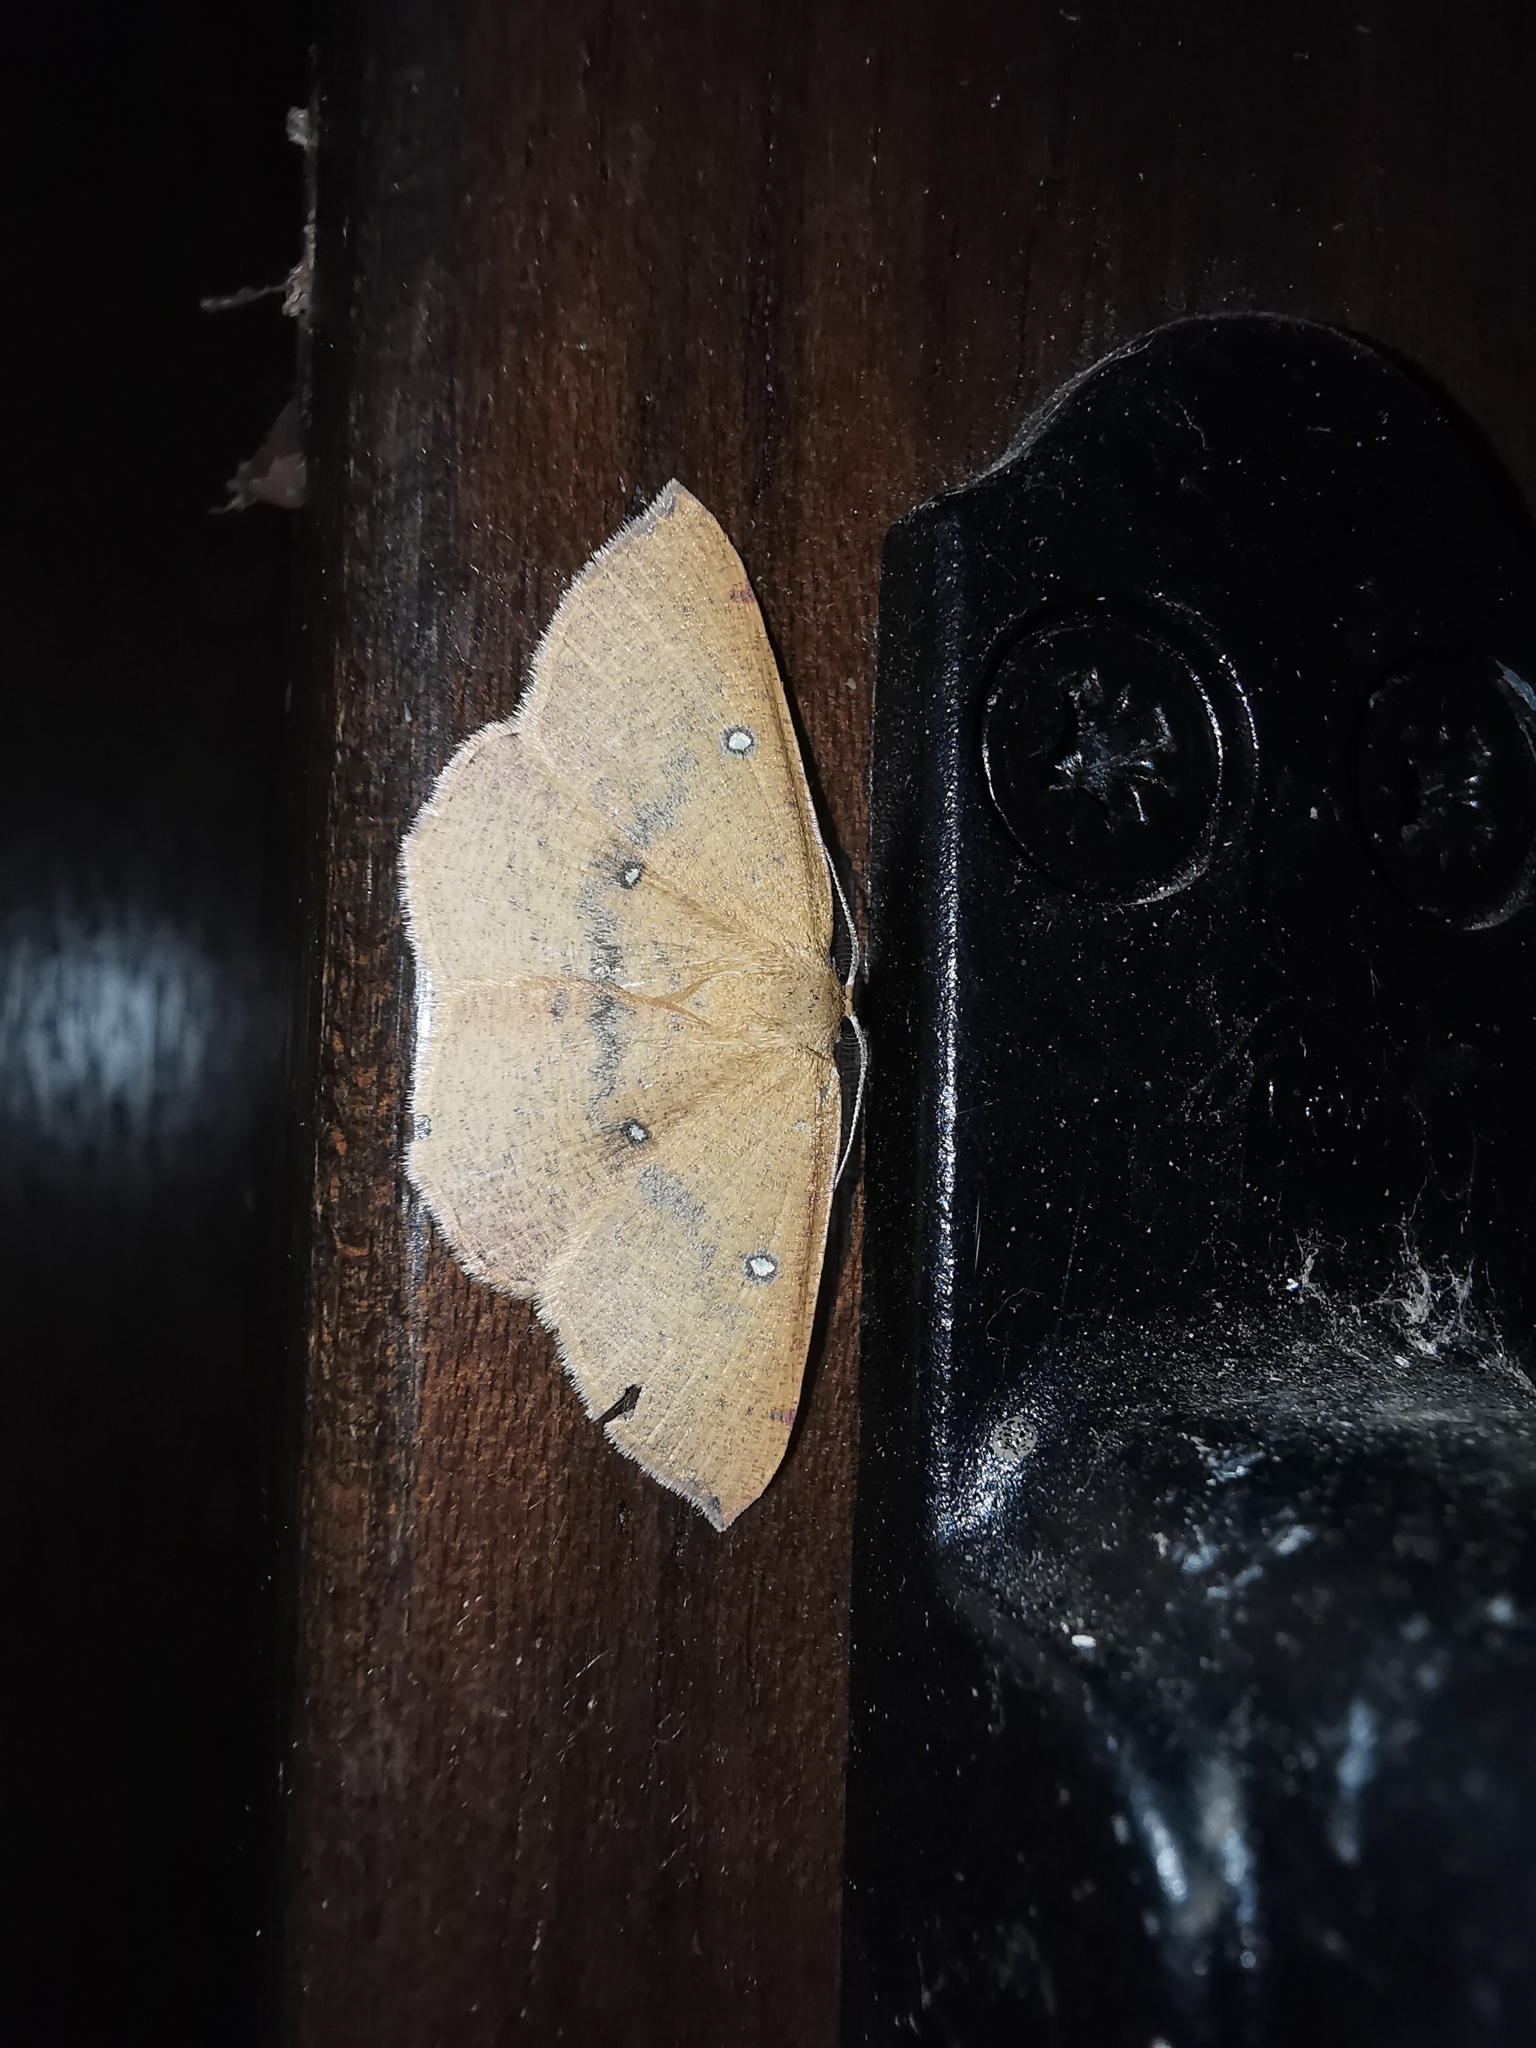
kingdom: Animalia
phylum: Arthropoda
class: Insecta
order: Lepidoptera
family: Geometridae
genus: Cyclophora
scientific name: Cyclophora puppillaria
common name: Blair's mocha
